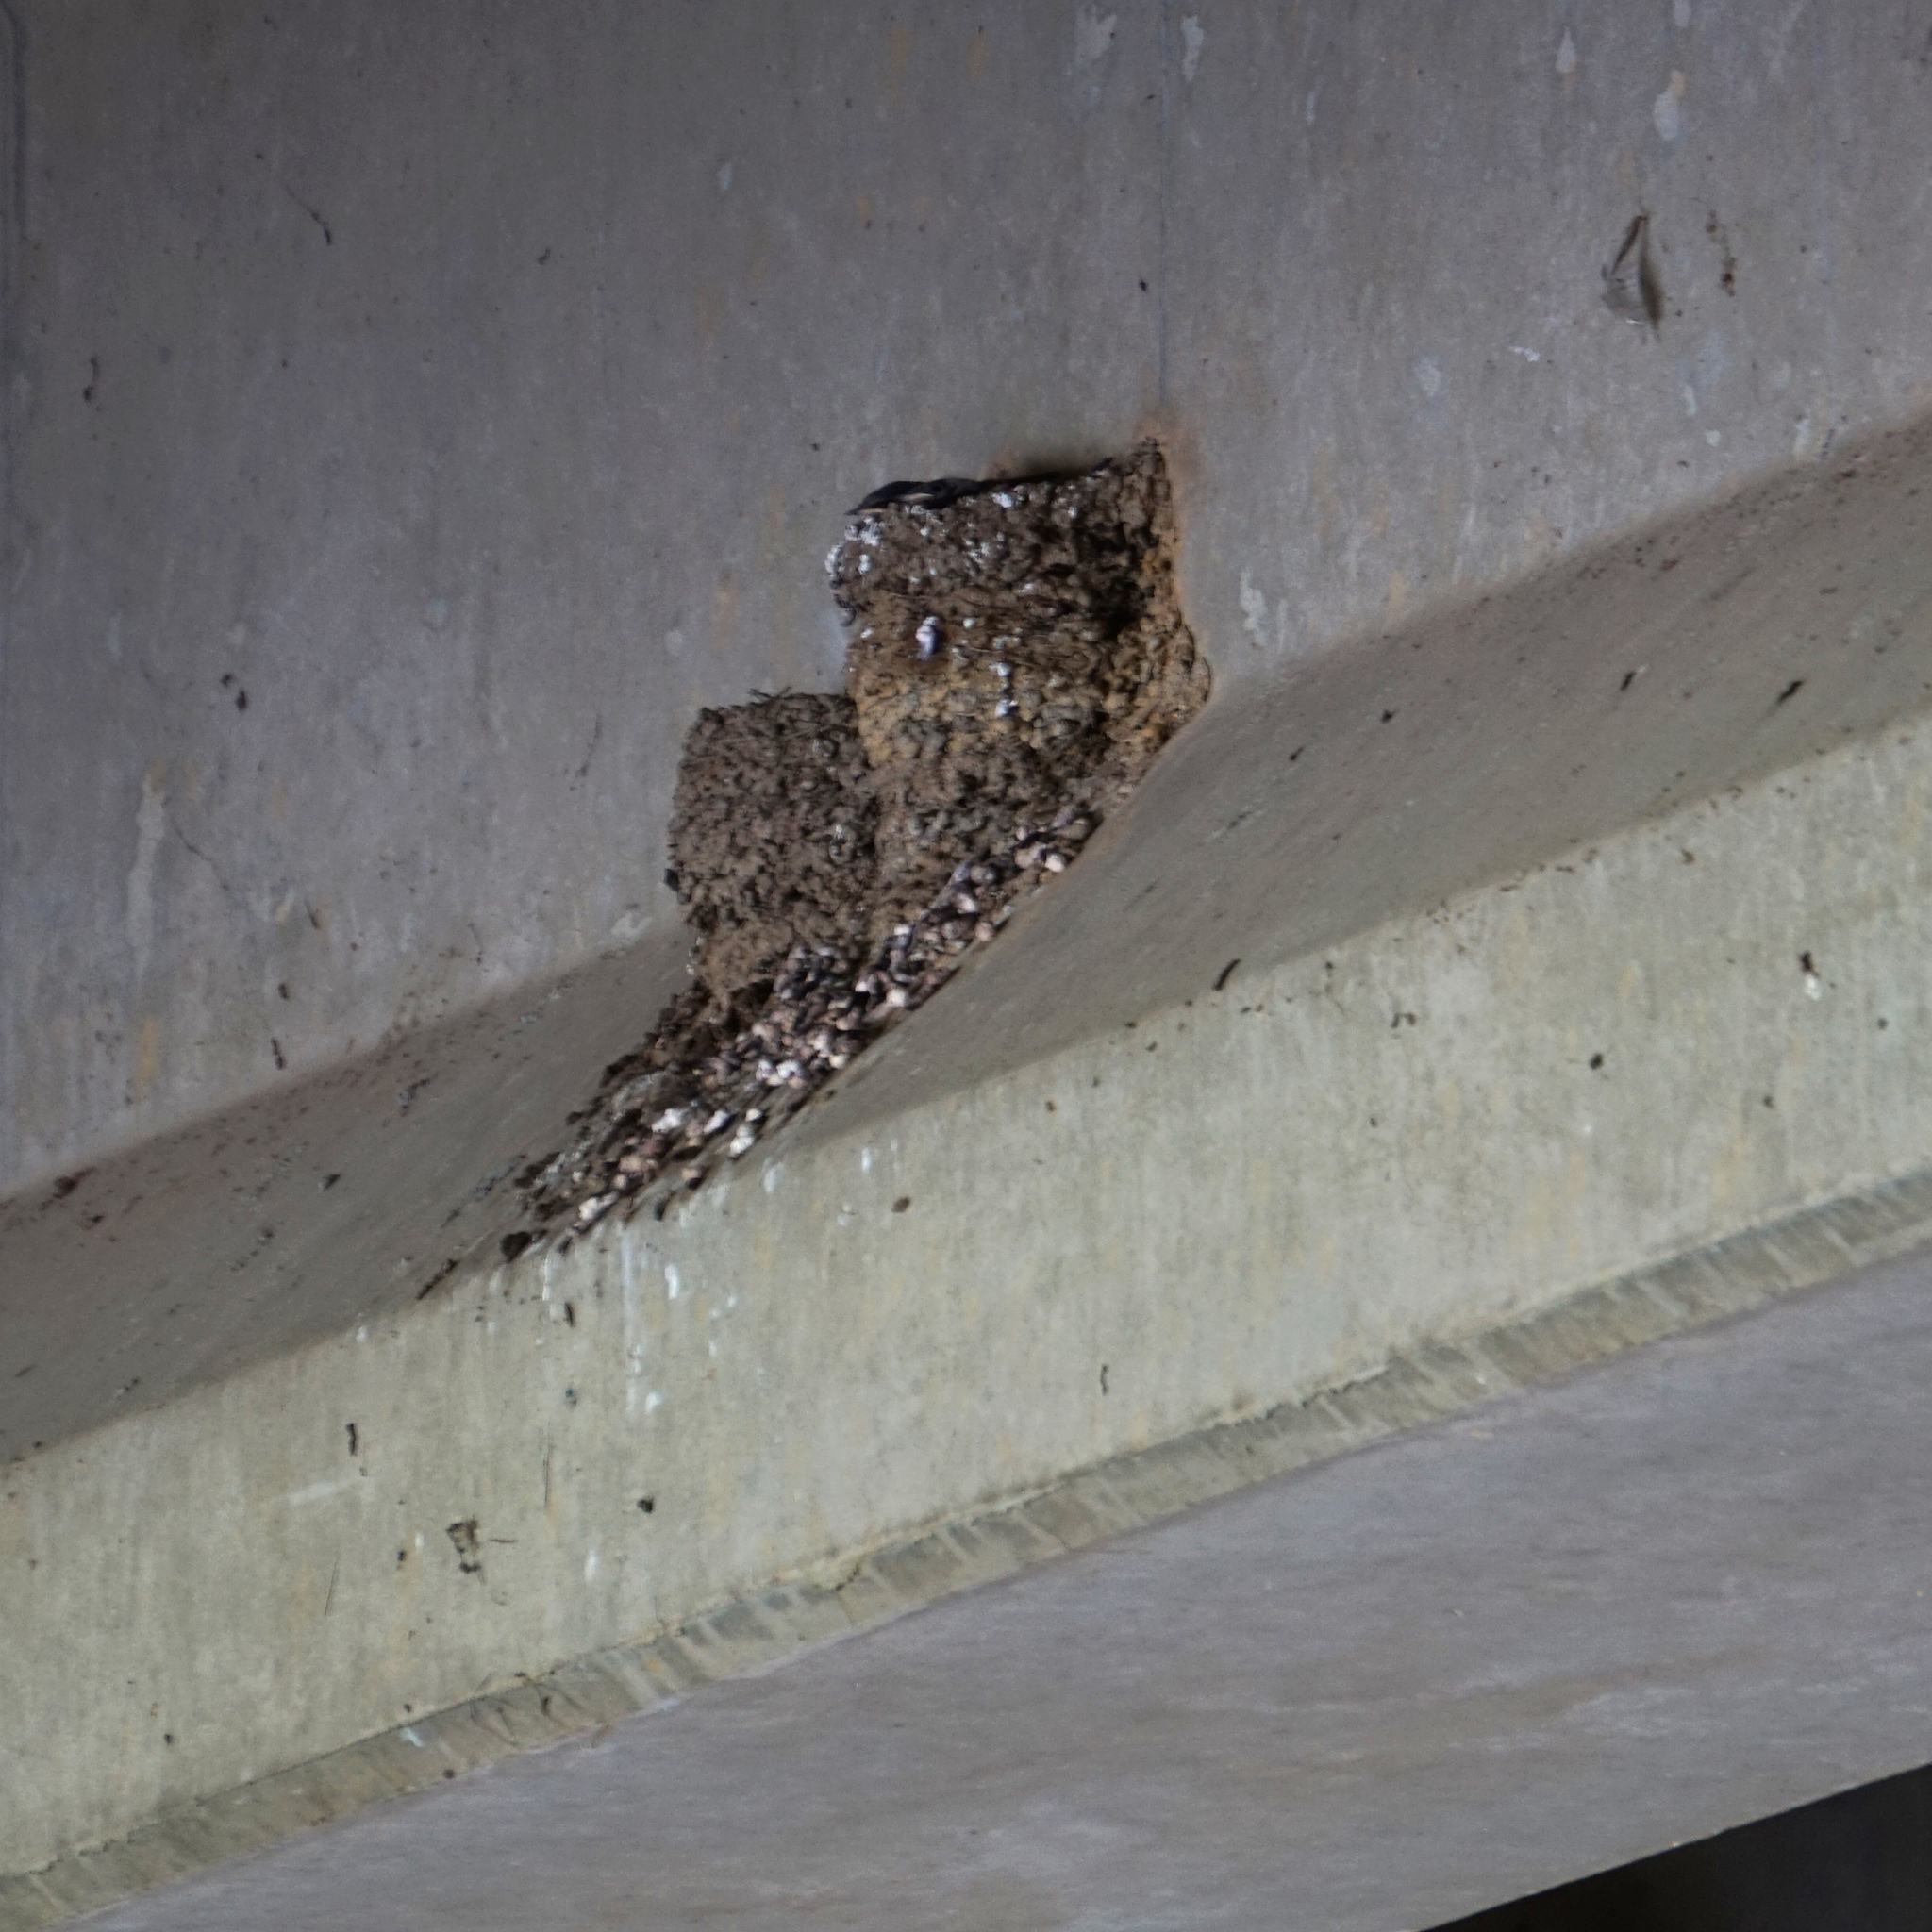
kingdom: Animalia
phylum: Chordata
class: Aves
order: Passeriformes
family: Hirundinidae
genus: Hirundo
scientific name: Hirundo rustica
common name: Barn swallow
